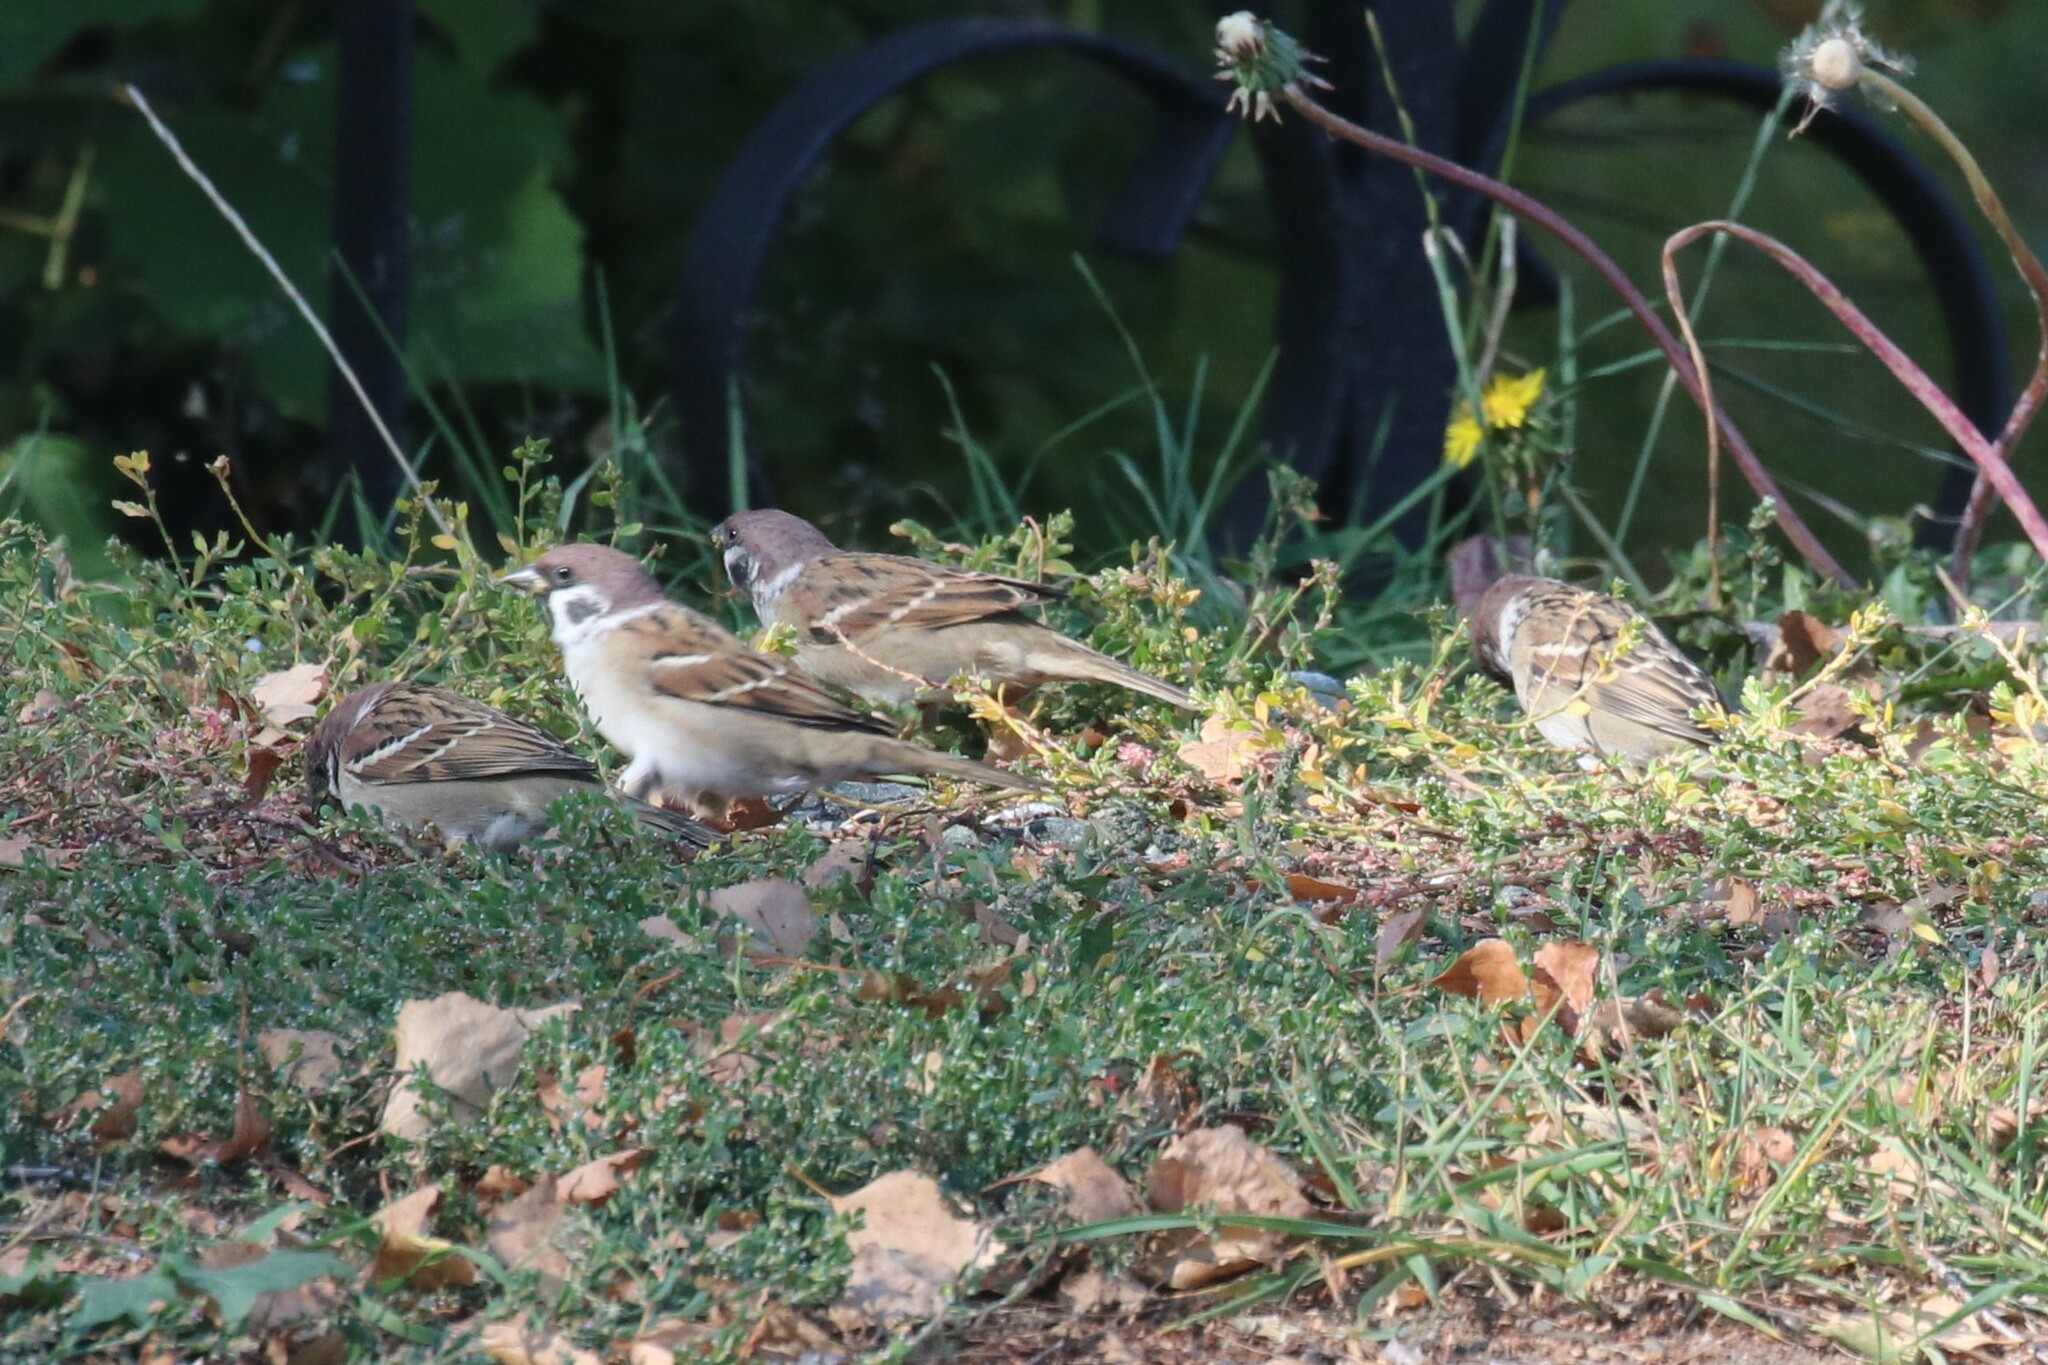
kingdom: Animalia
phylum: Chordata
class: Aves
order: Passeriformes
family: Passeridae
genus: Passer
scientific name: Passer montanus
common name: Eurasian tree sparrow
